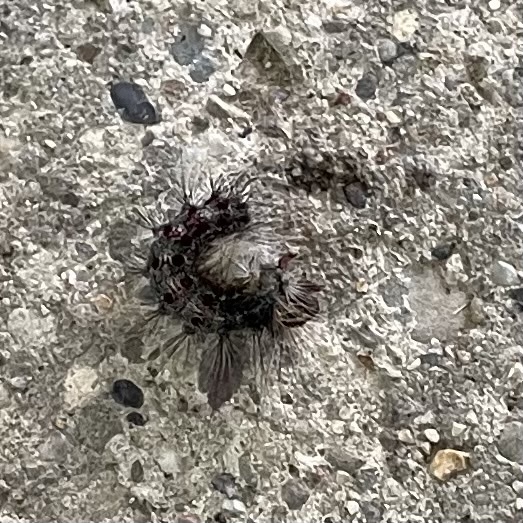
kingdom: Animalia
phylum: Arthropoda
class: Insecta
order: Lepidoptera
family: Erebidae
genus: Lymantria
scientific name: Lymantria dispar
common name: Gypsy moth
